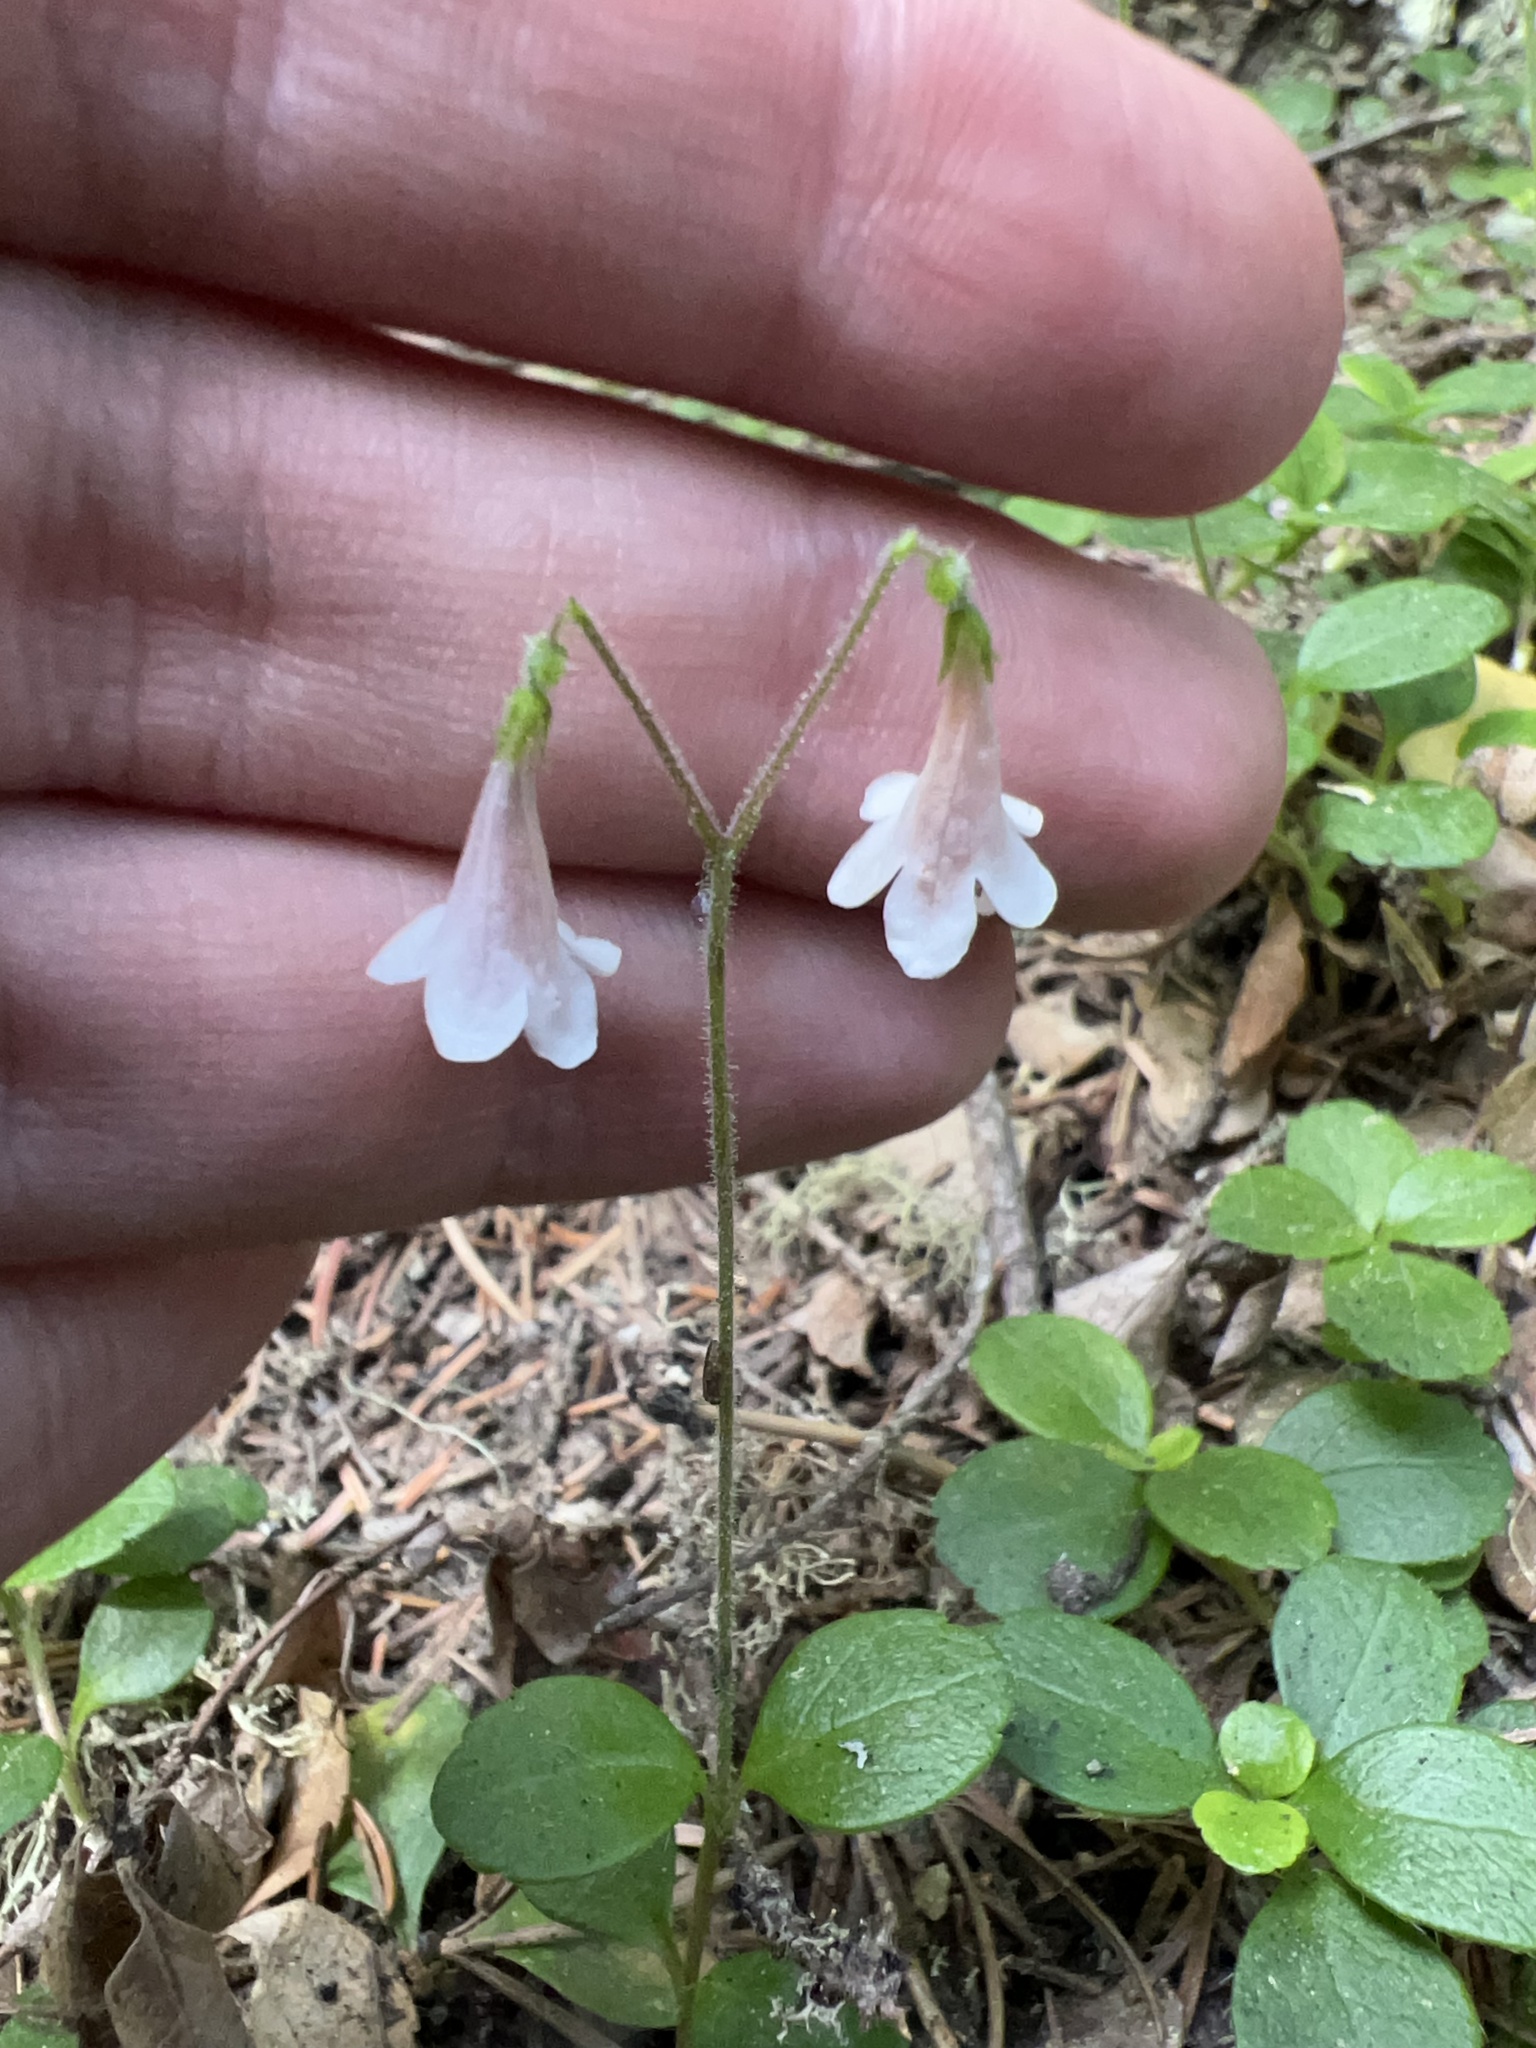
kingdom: Plantae
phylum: Tracheophyta
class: Magnoliopsida
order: Dipsacales
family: Caprifoliaceae
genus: Linnaea
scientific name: Linnaea borealis
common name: Twinflower
